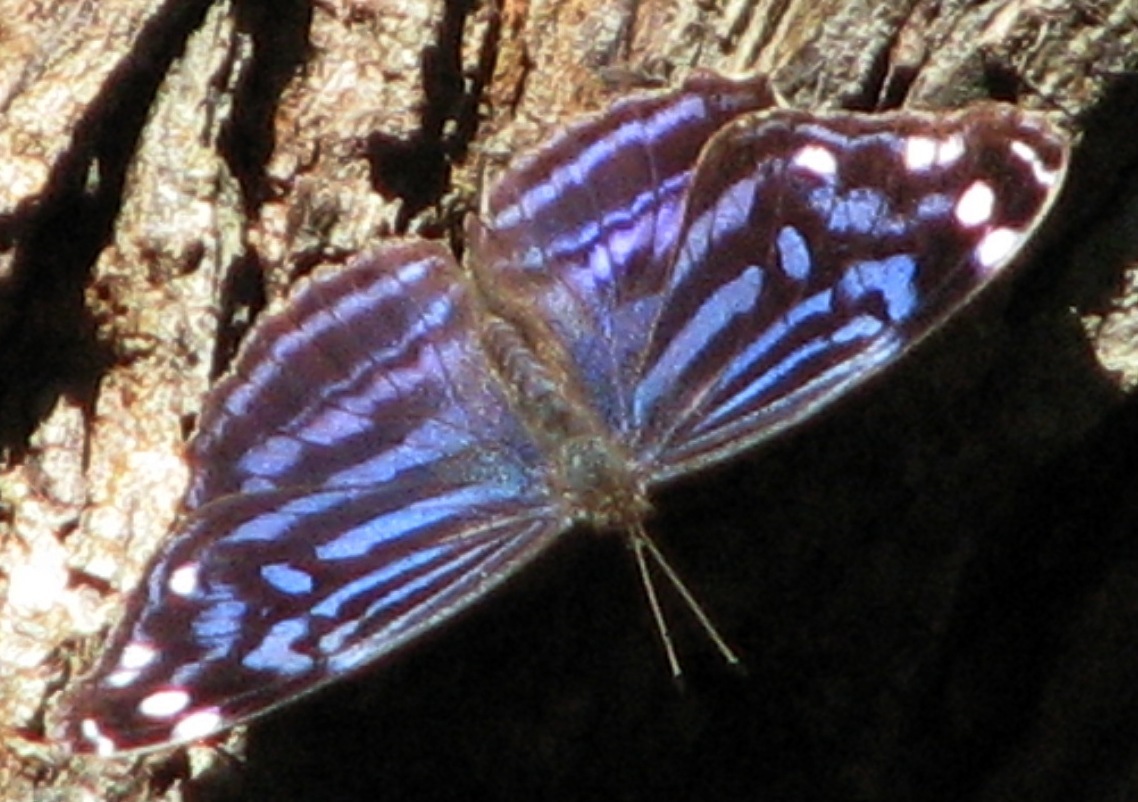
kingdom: Animalia
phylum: Arthropoda
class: Insecta
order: Lepidoptera
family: Nymphalidae
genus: Myscelia
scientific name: Myscelia ethusa
